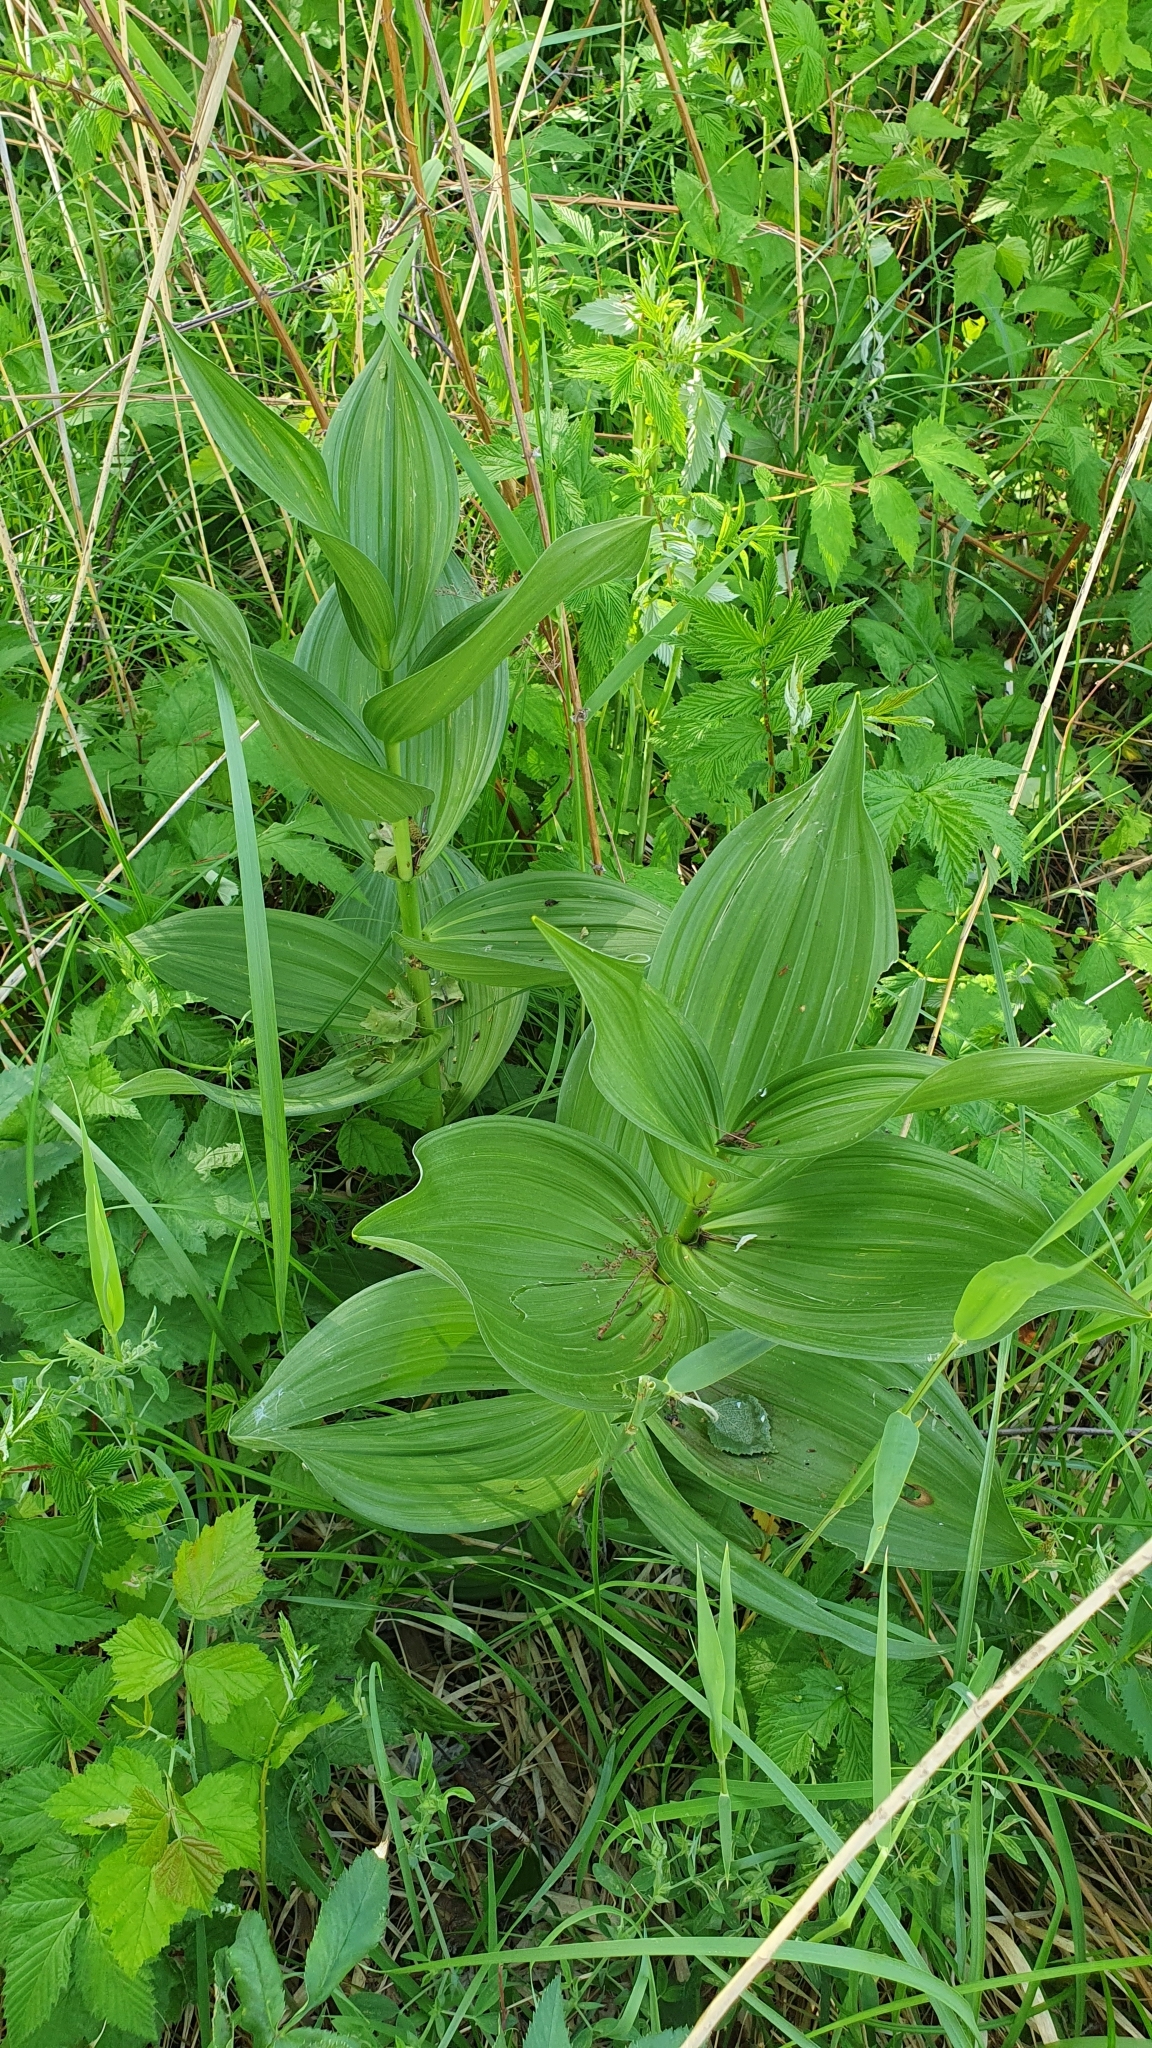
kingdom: Plantae
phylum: Tracheophyta
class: Liliopsida
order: Liliales
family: Melanthiaceae
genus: Veratrum
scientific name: Veratrum lobelianum
